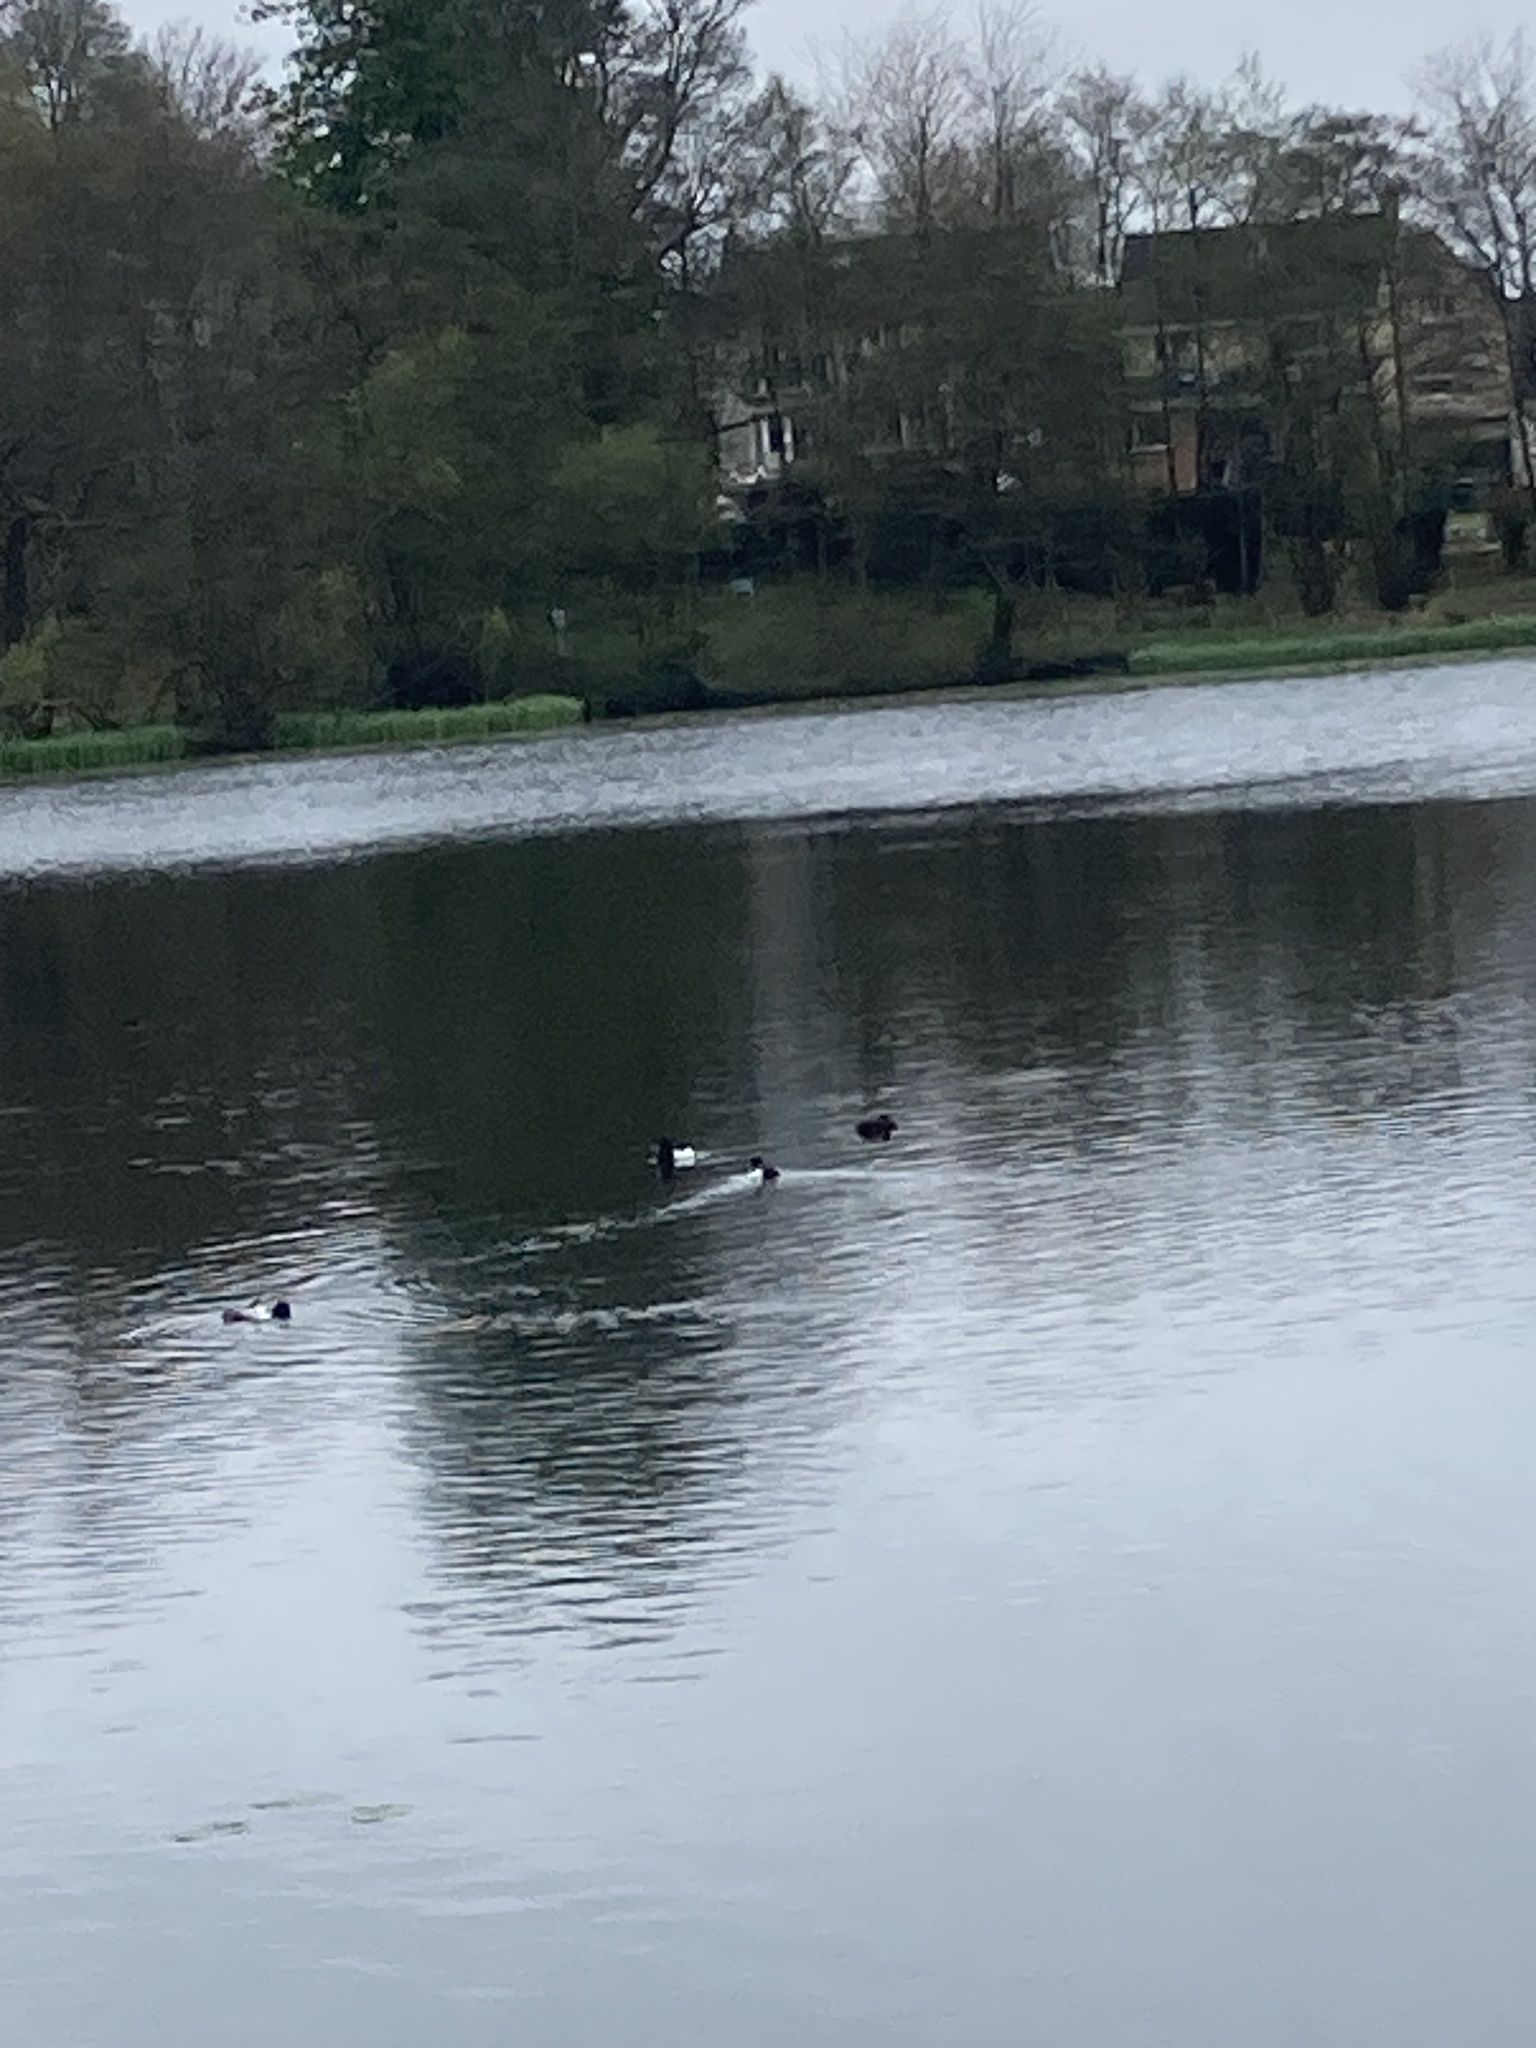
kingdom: Animalia
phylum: Chordata
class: Aves
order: Anseriformes
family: Anatidae
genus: Aythya
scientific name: Aythya fuligula
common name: Tufted duck
